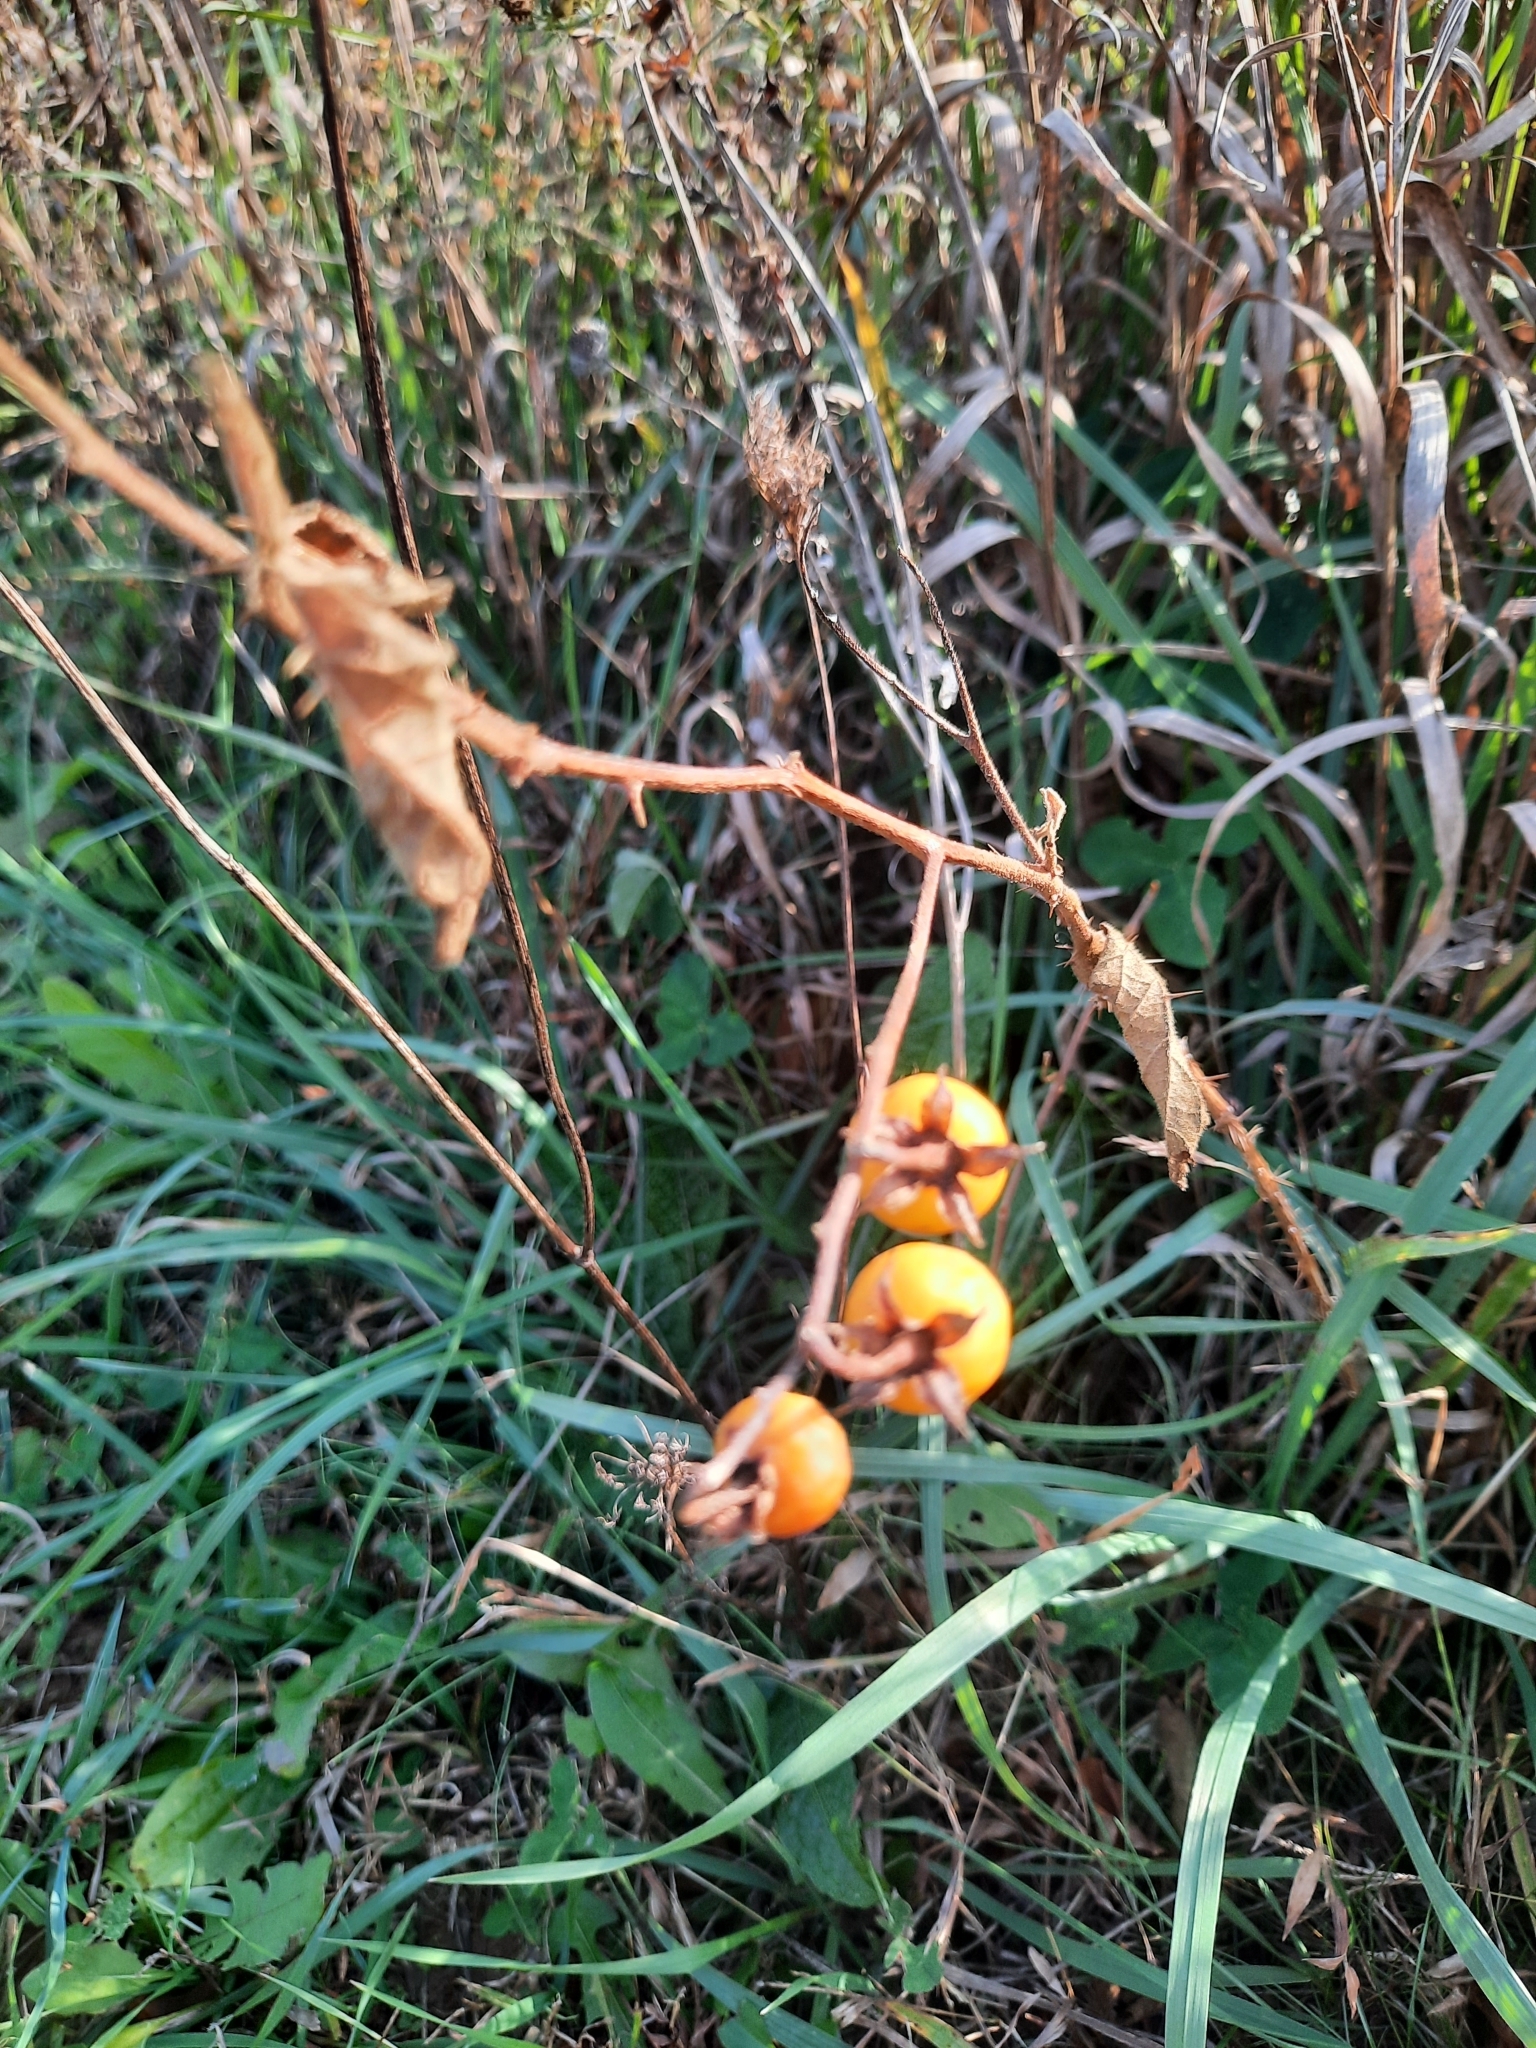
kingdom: Plantae
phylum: Tracheophyta
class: Magnoliopsida
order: Solanales
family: Solanaceae
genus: Solanum
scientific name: Solanum carolinense
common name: Horse-nettle
